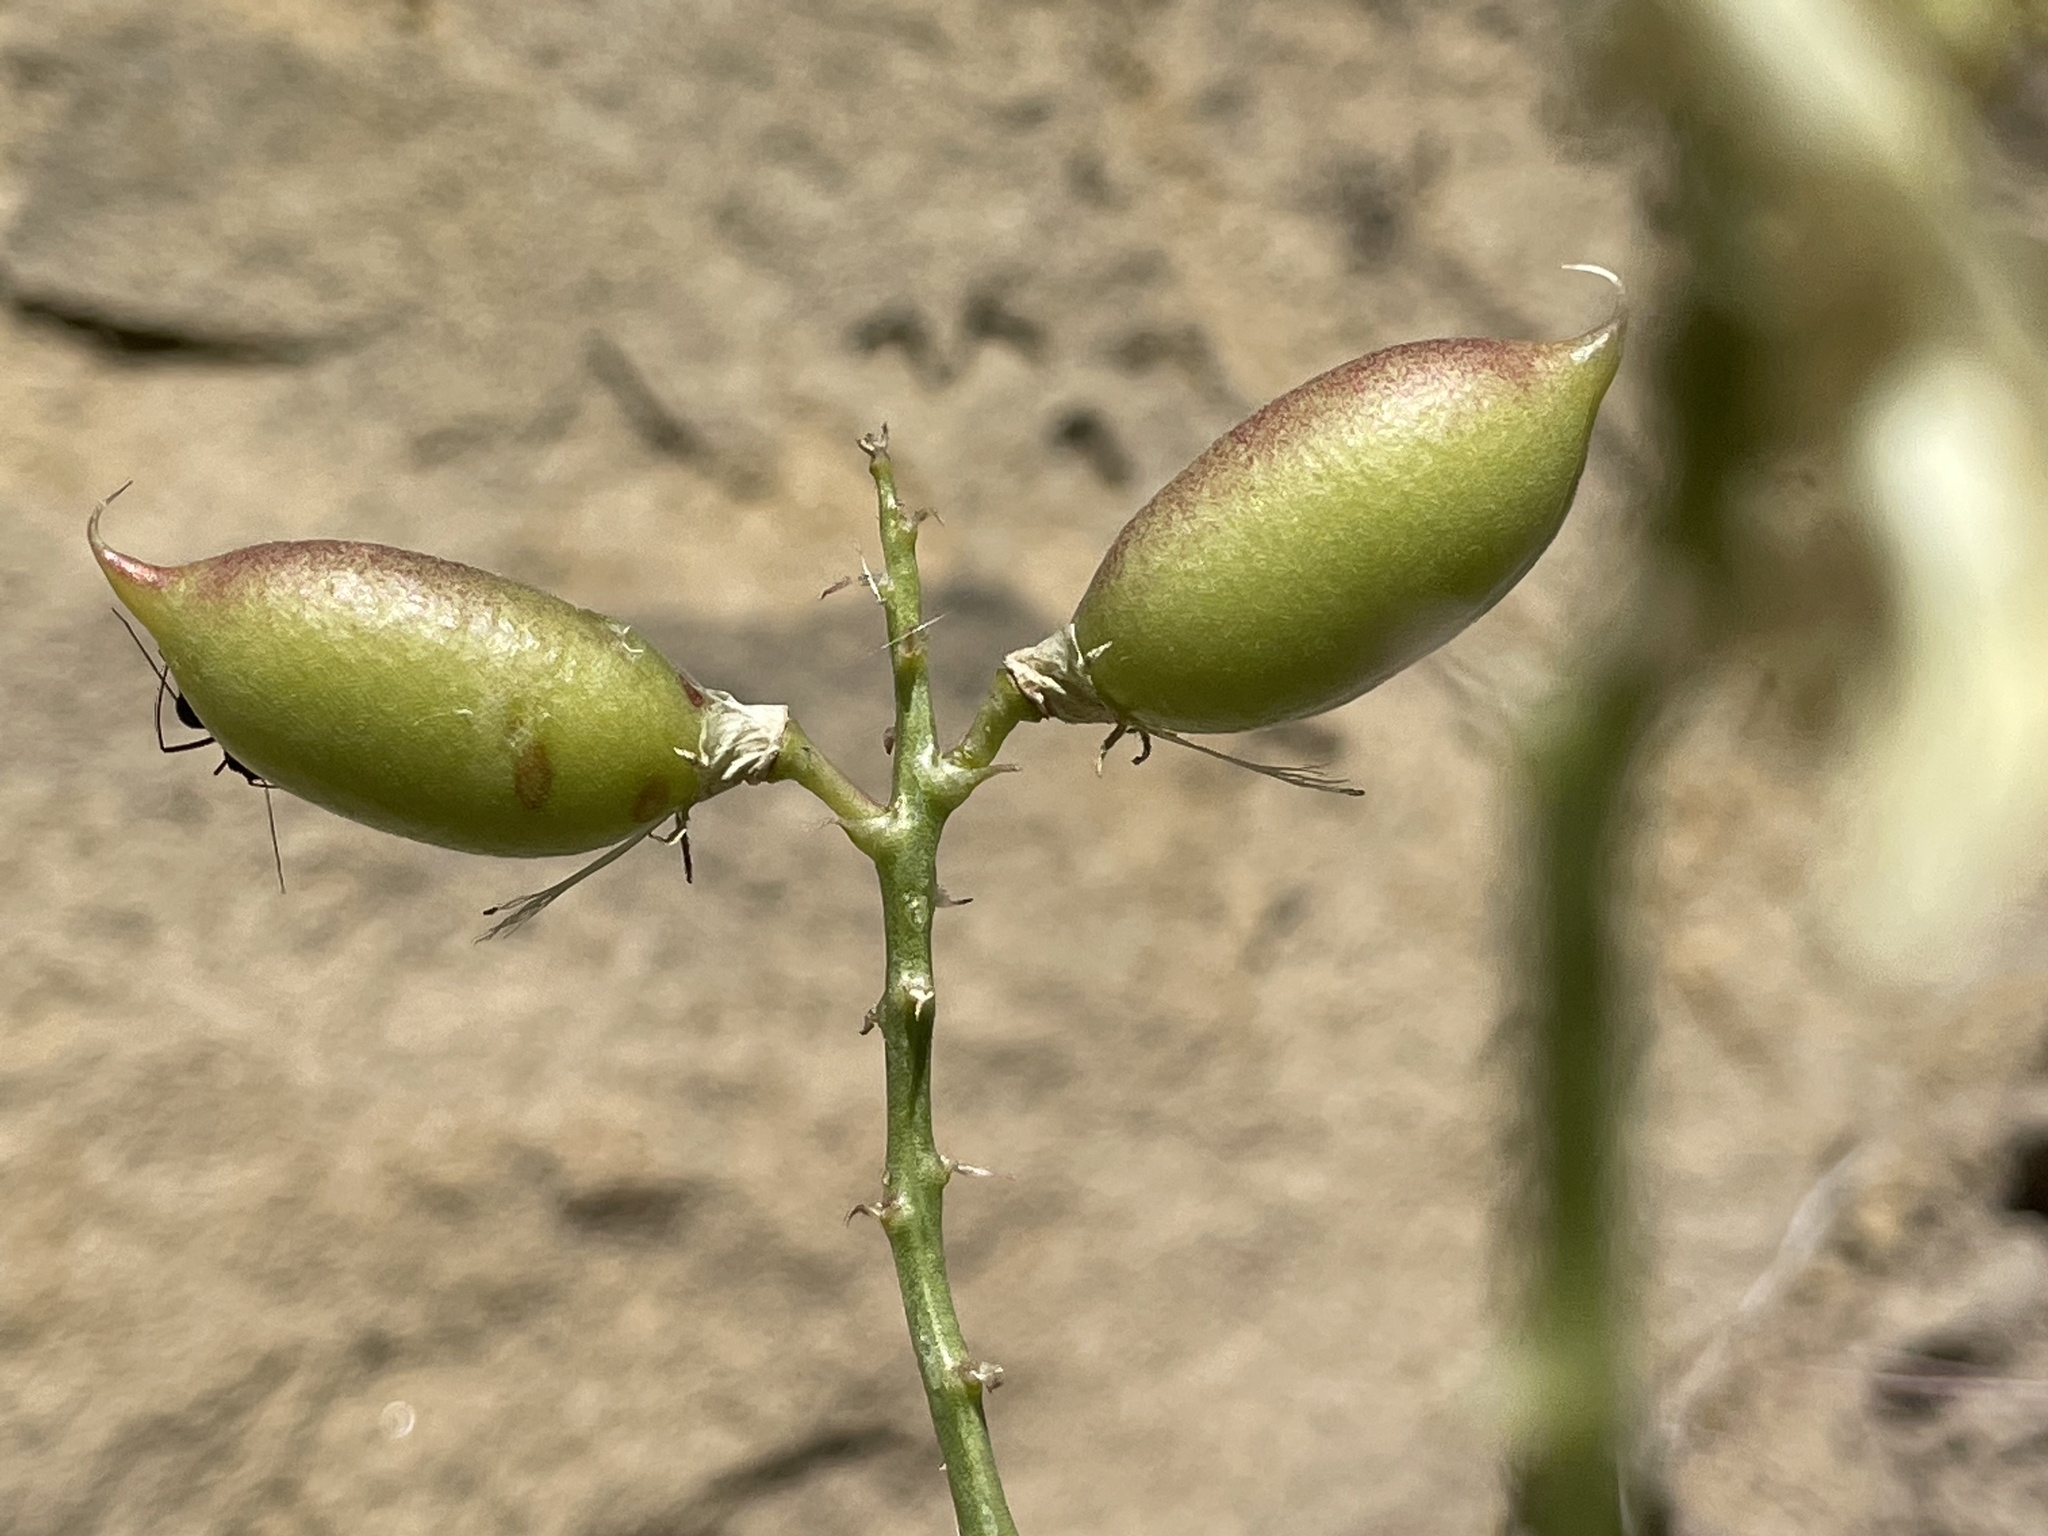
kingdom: Plantae
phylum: Tracheophyta
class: Magnoliopsida
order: Fabales
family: Fabaceae
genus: Astragalus
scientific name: Astragalus praelongus
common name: Stinking milk-vetch
